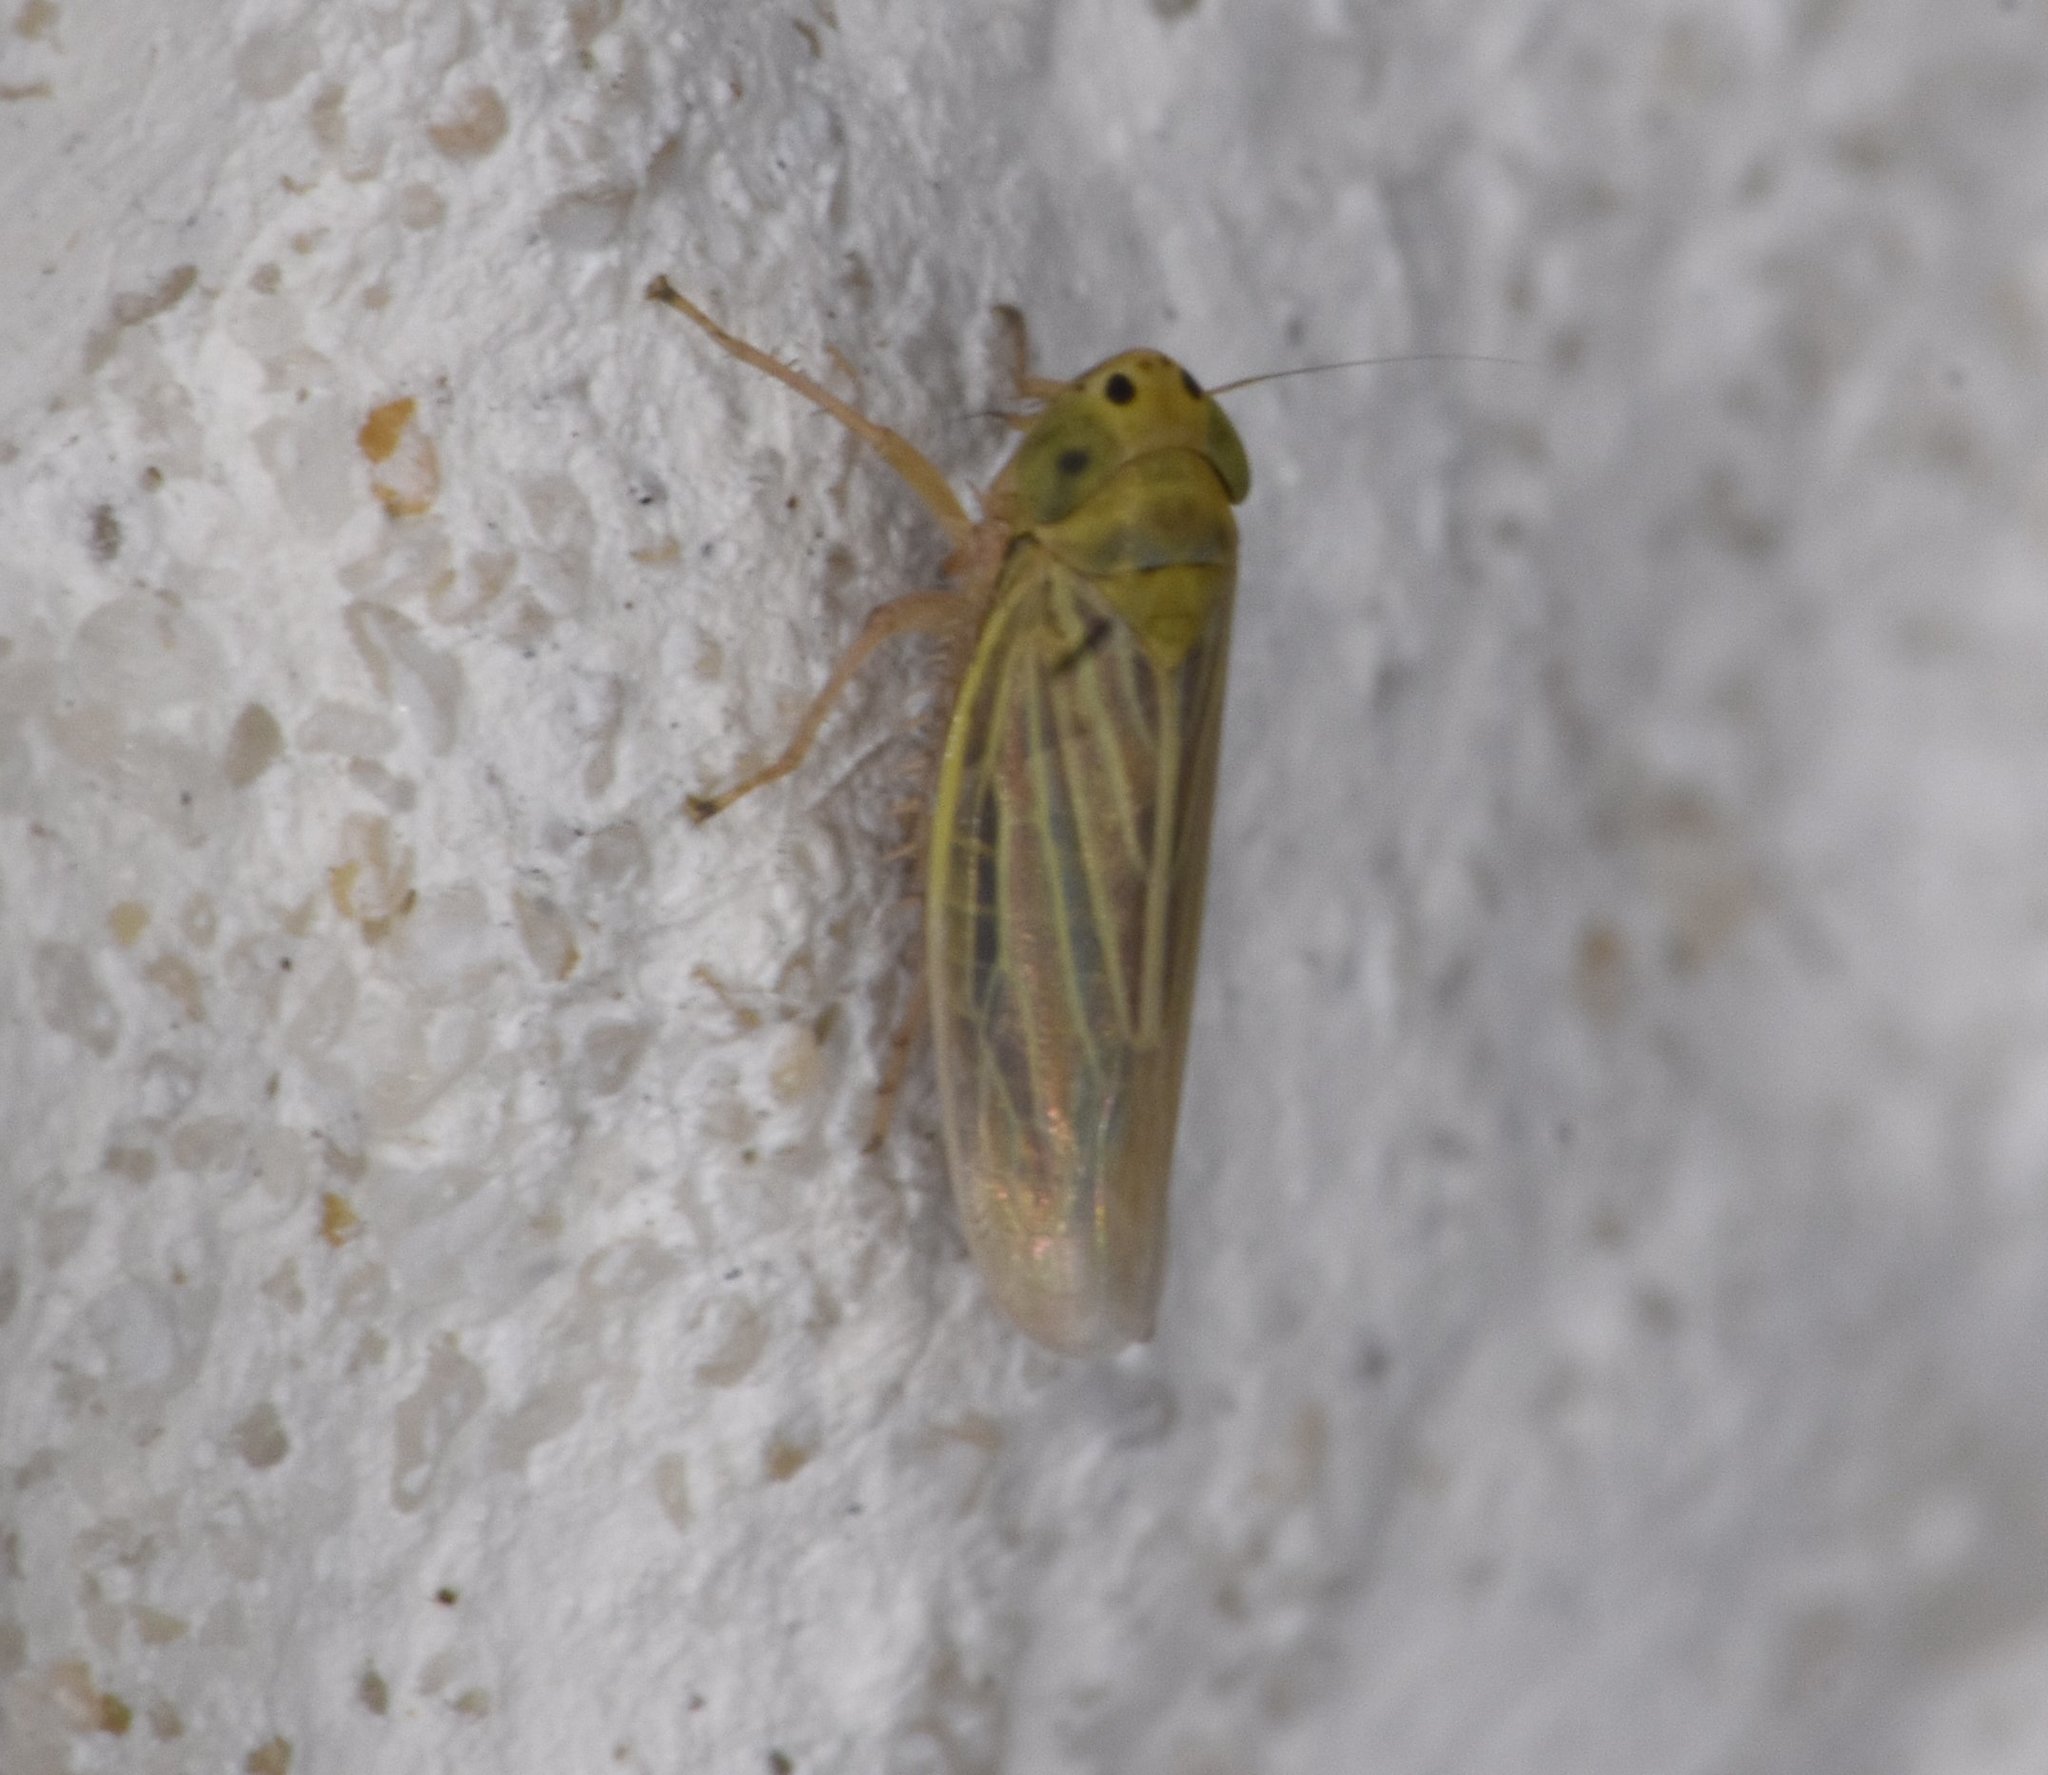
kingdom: Animalia
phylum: Arthropoda
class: Insecta
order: Hemiptera
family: Cicadellidae
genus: Graminella
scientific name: Graminella cognita
